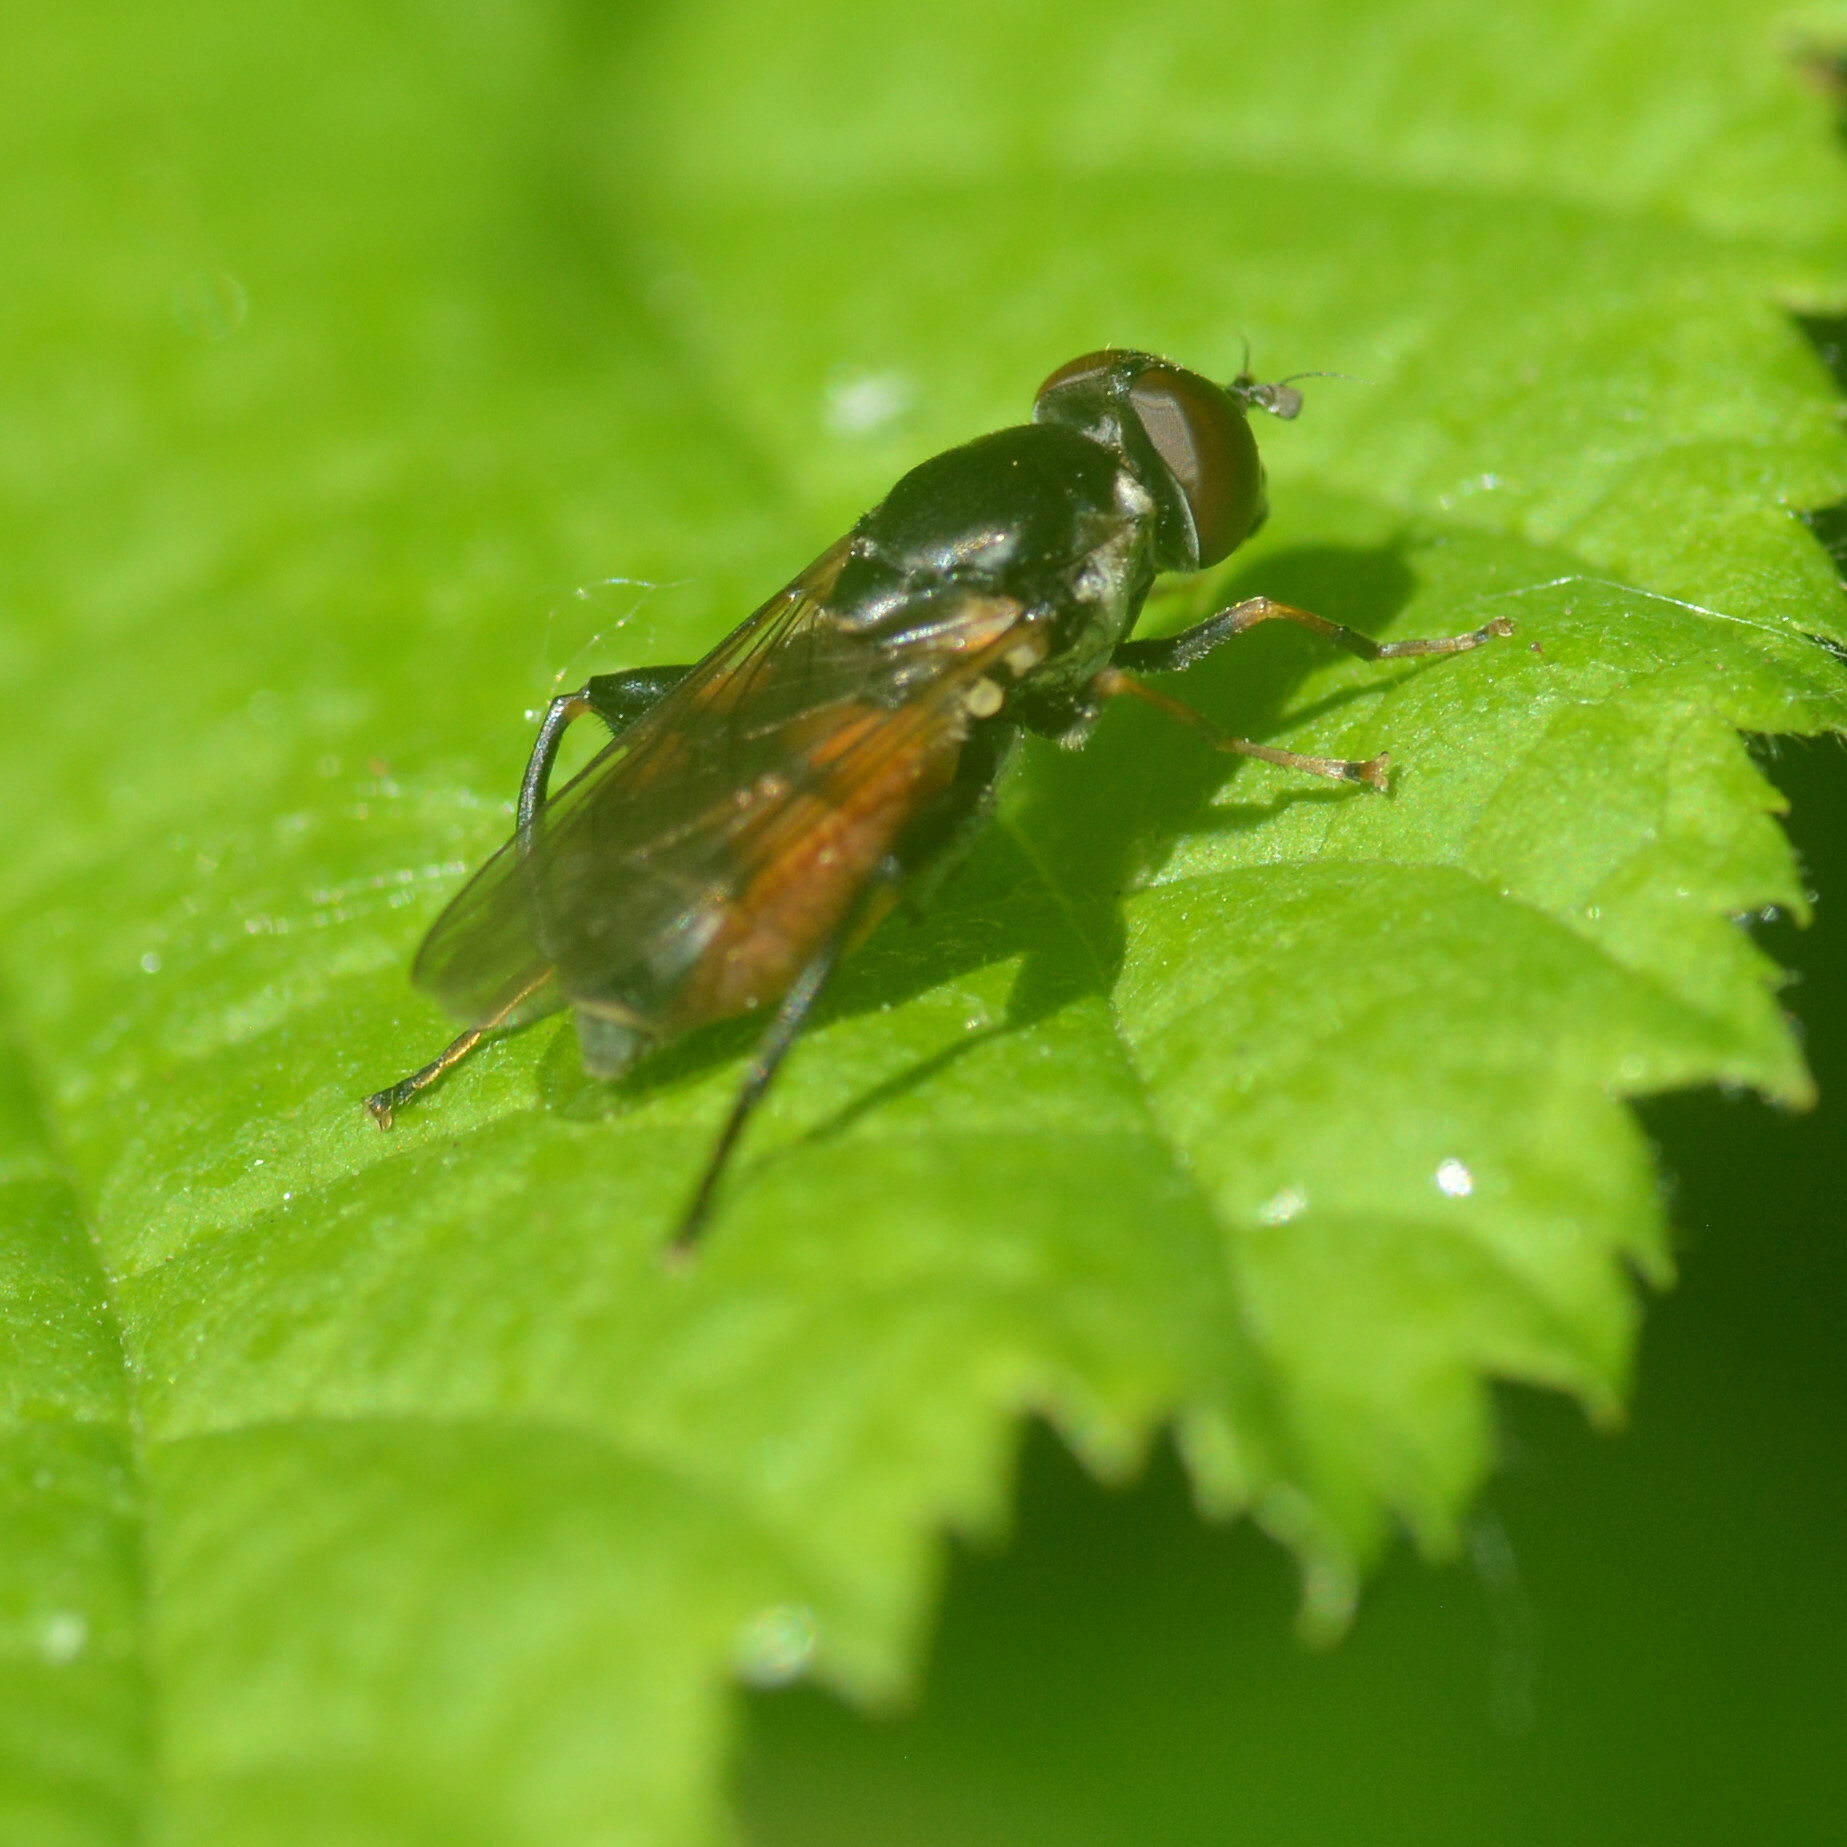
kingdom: Animalia
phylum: Arthropoda
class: Insecta
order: Diptera
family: Syrphidae
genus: Tropidia
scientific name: Tropidia scita
